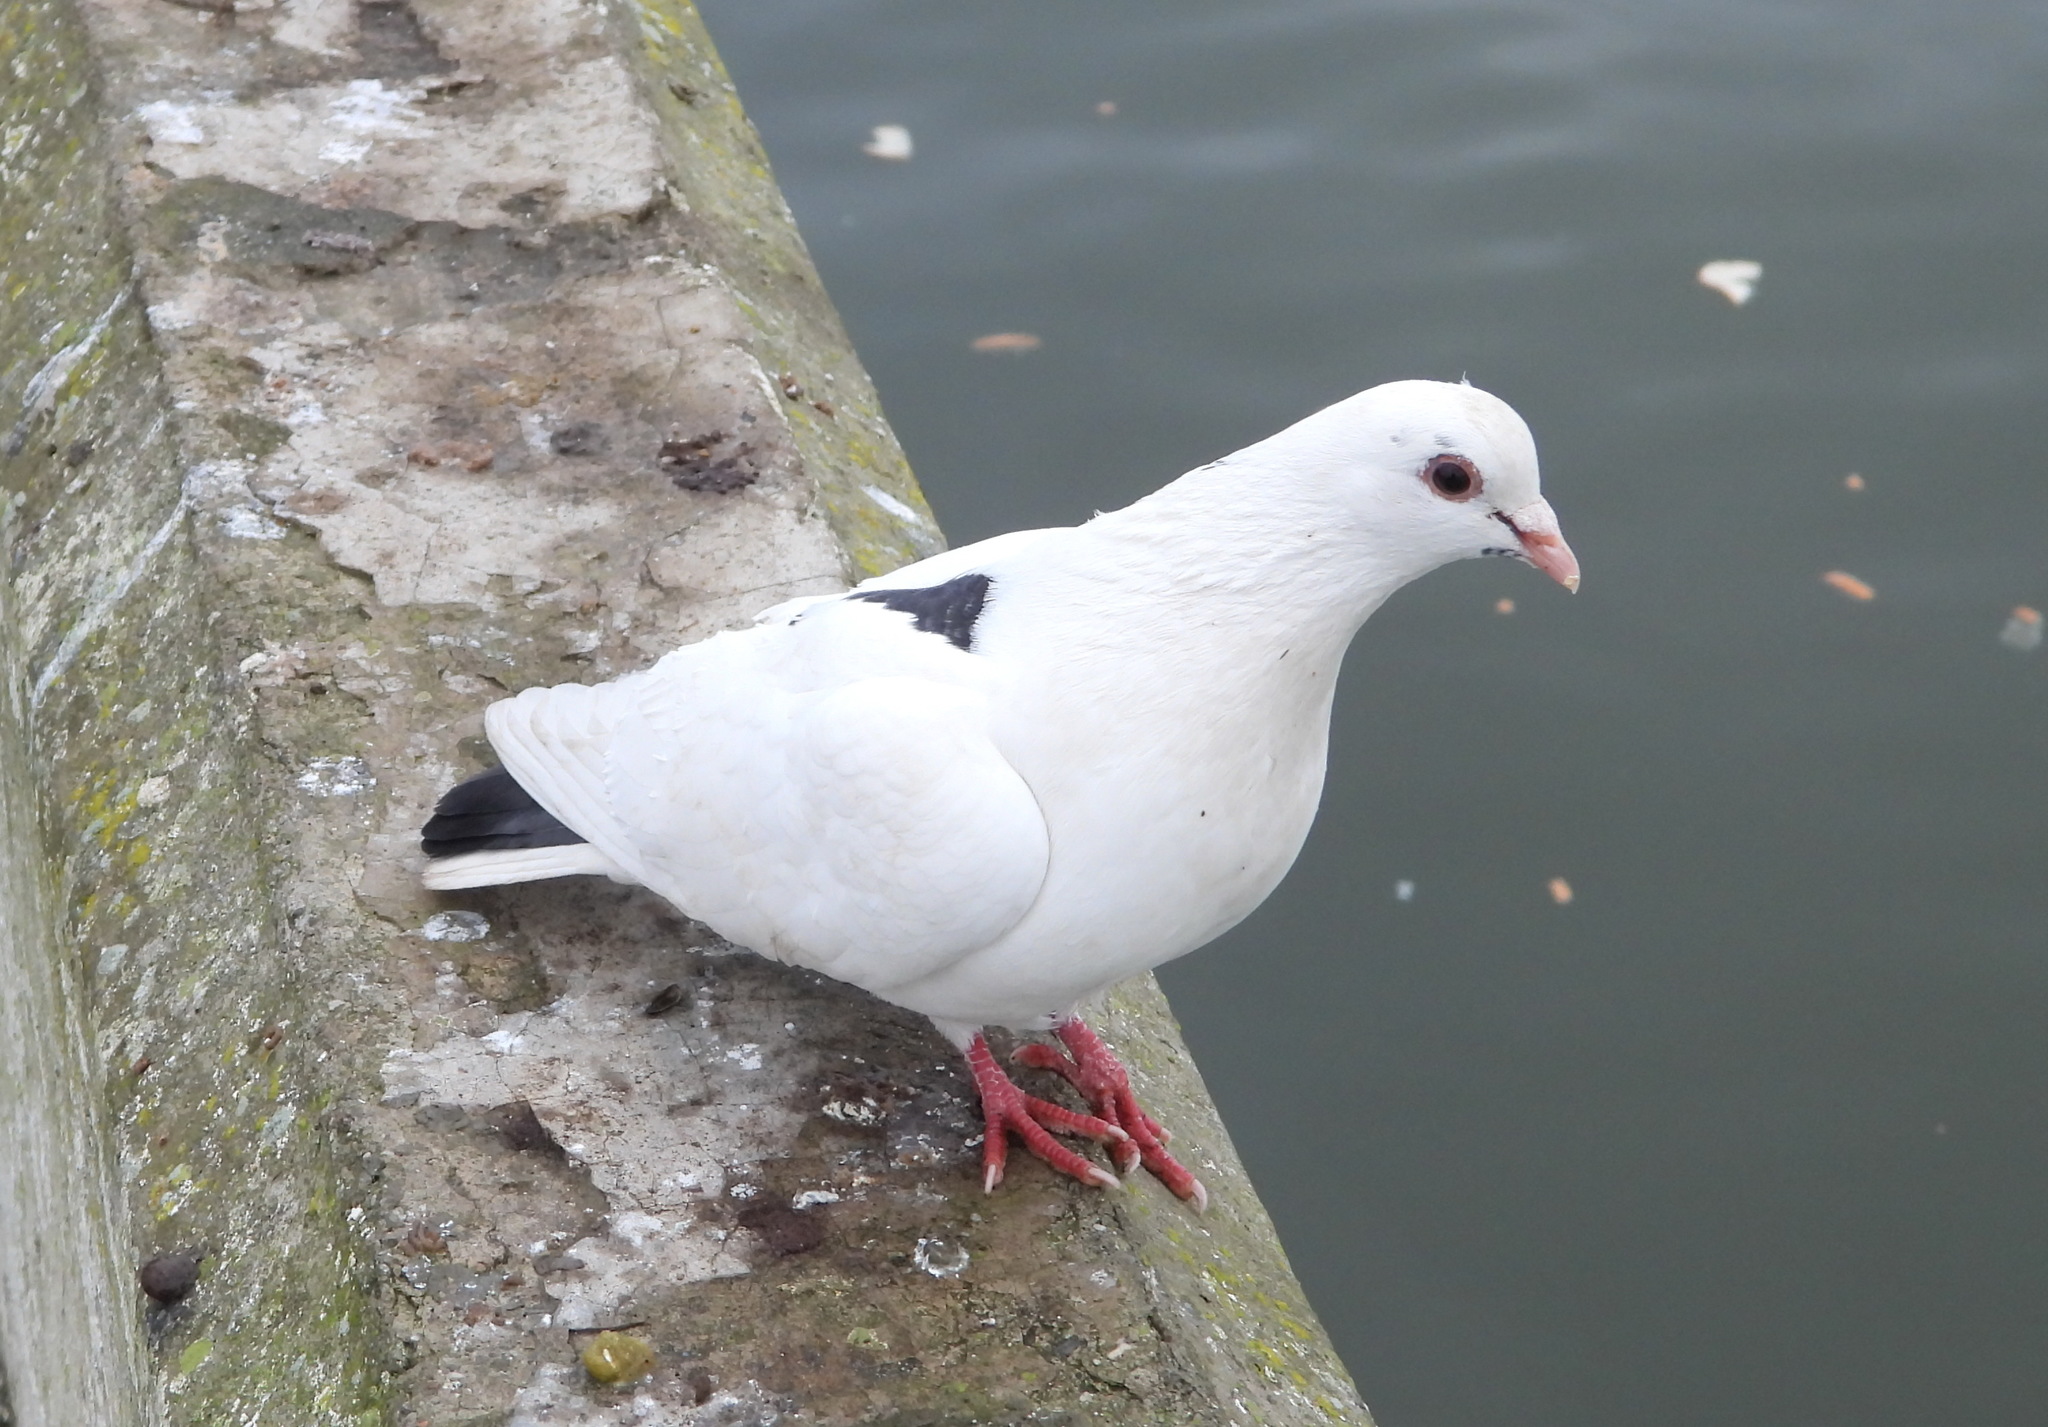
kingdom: Animalia
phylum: Chordata
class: Aves
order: Columbiformes
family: Columbidae
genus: Columba
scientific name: Columba livia
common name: Rock pigeon
